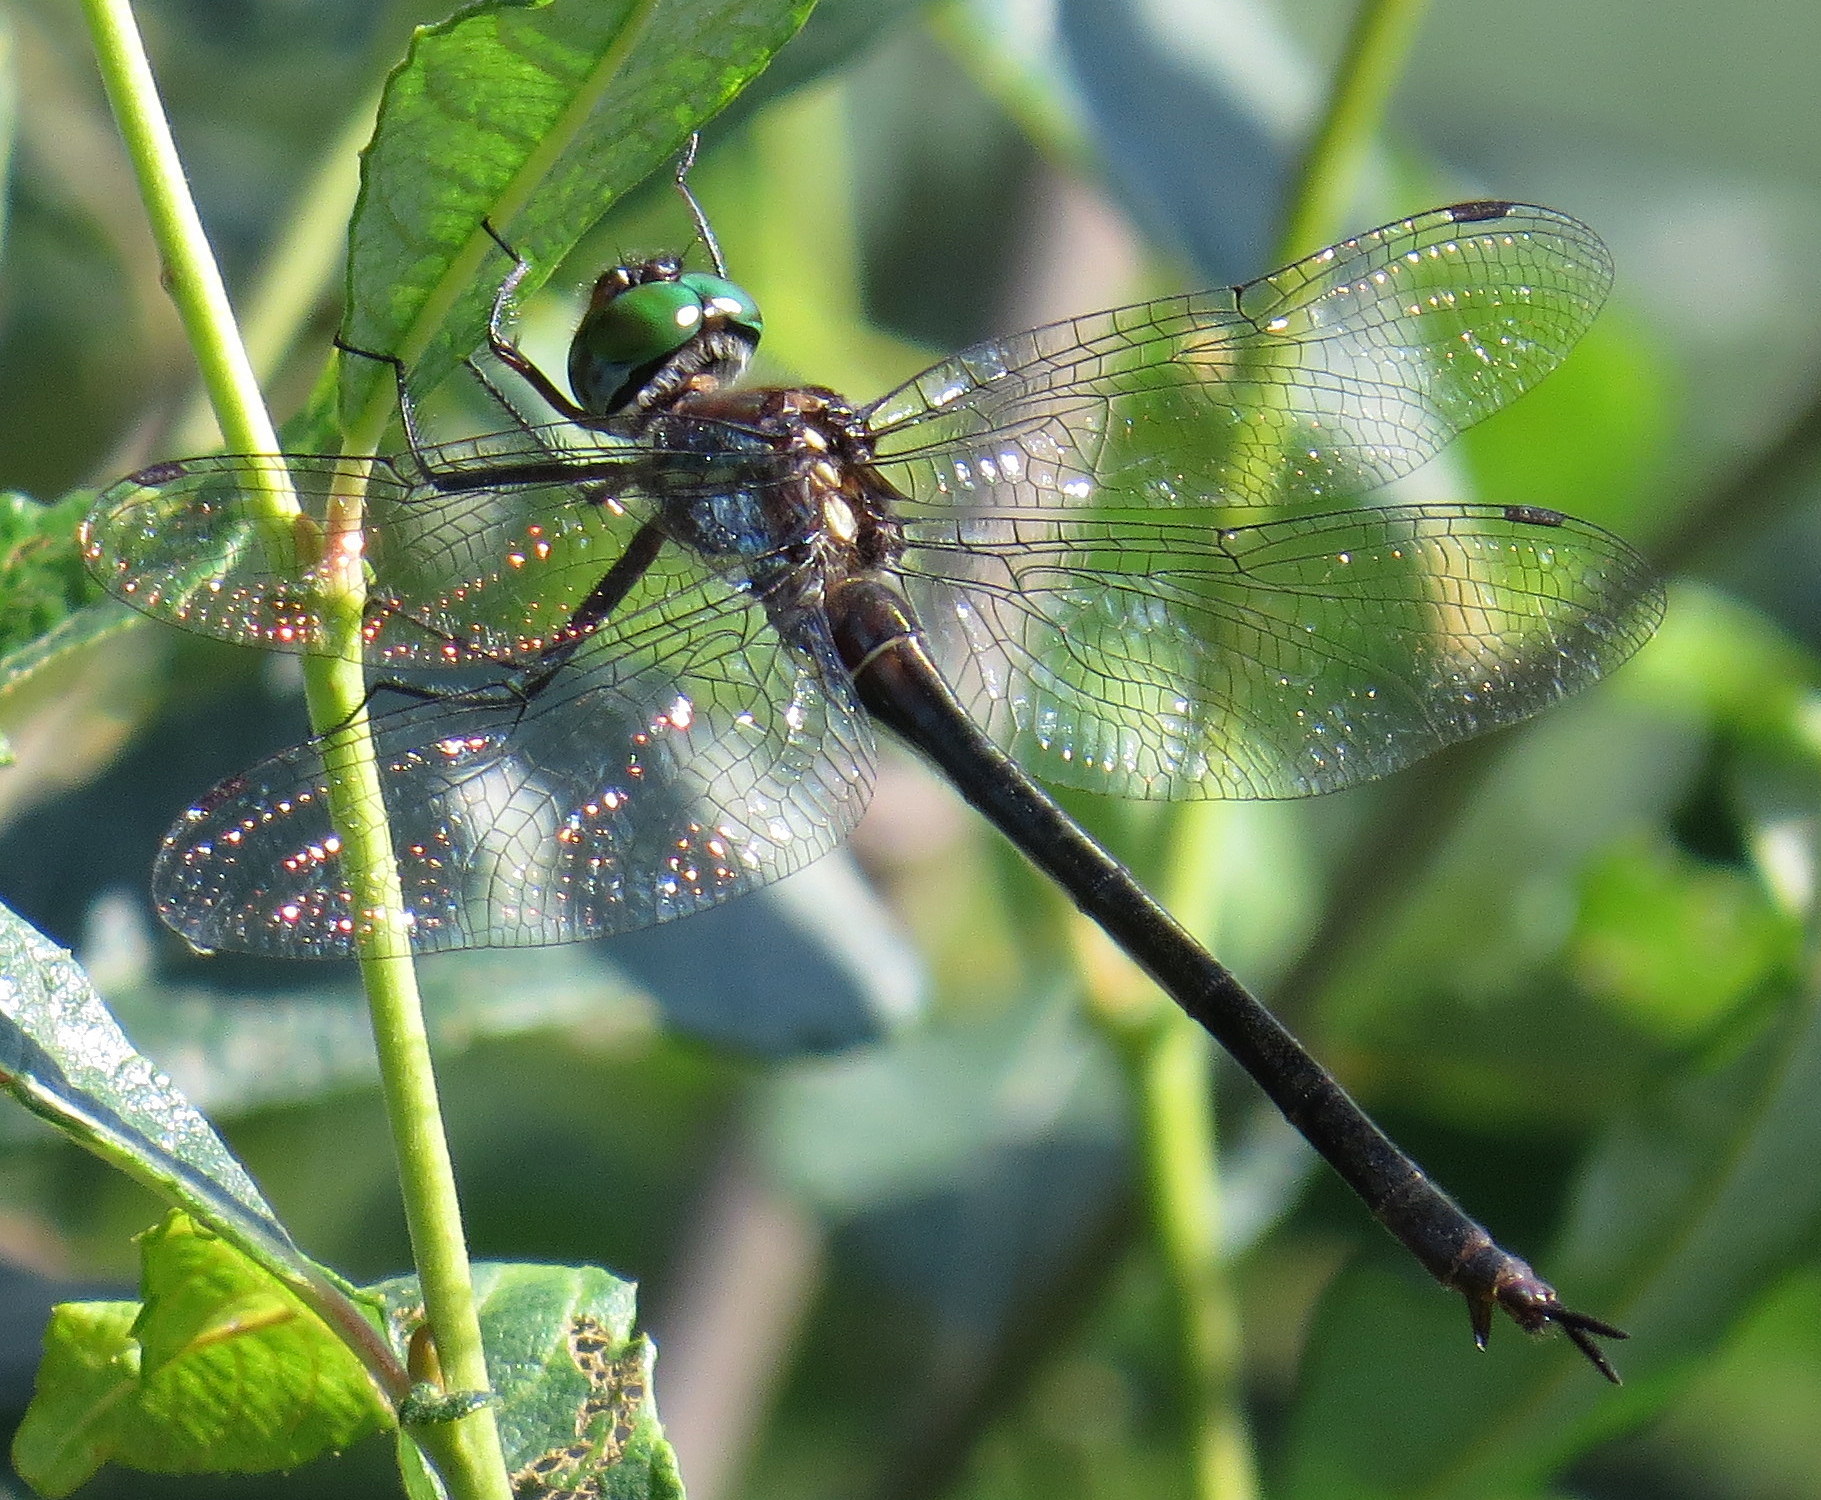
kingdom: Animalia
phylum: Arthropoda
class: Insecta
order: Odonata
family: Corduliidae
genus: Somatochlora
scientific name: Somatochlora tenebrosa
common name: Clamp-tipped emerald
